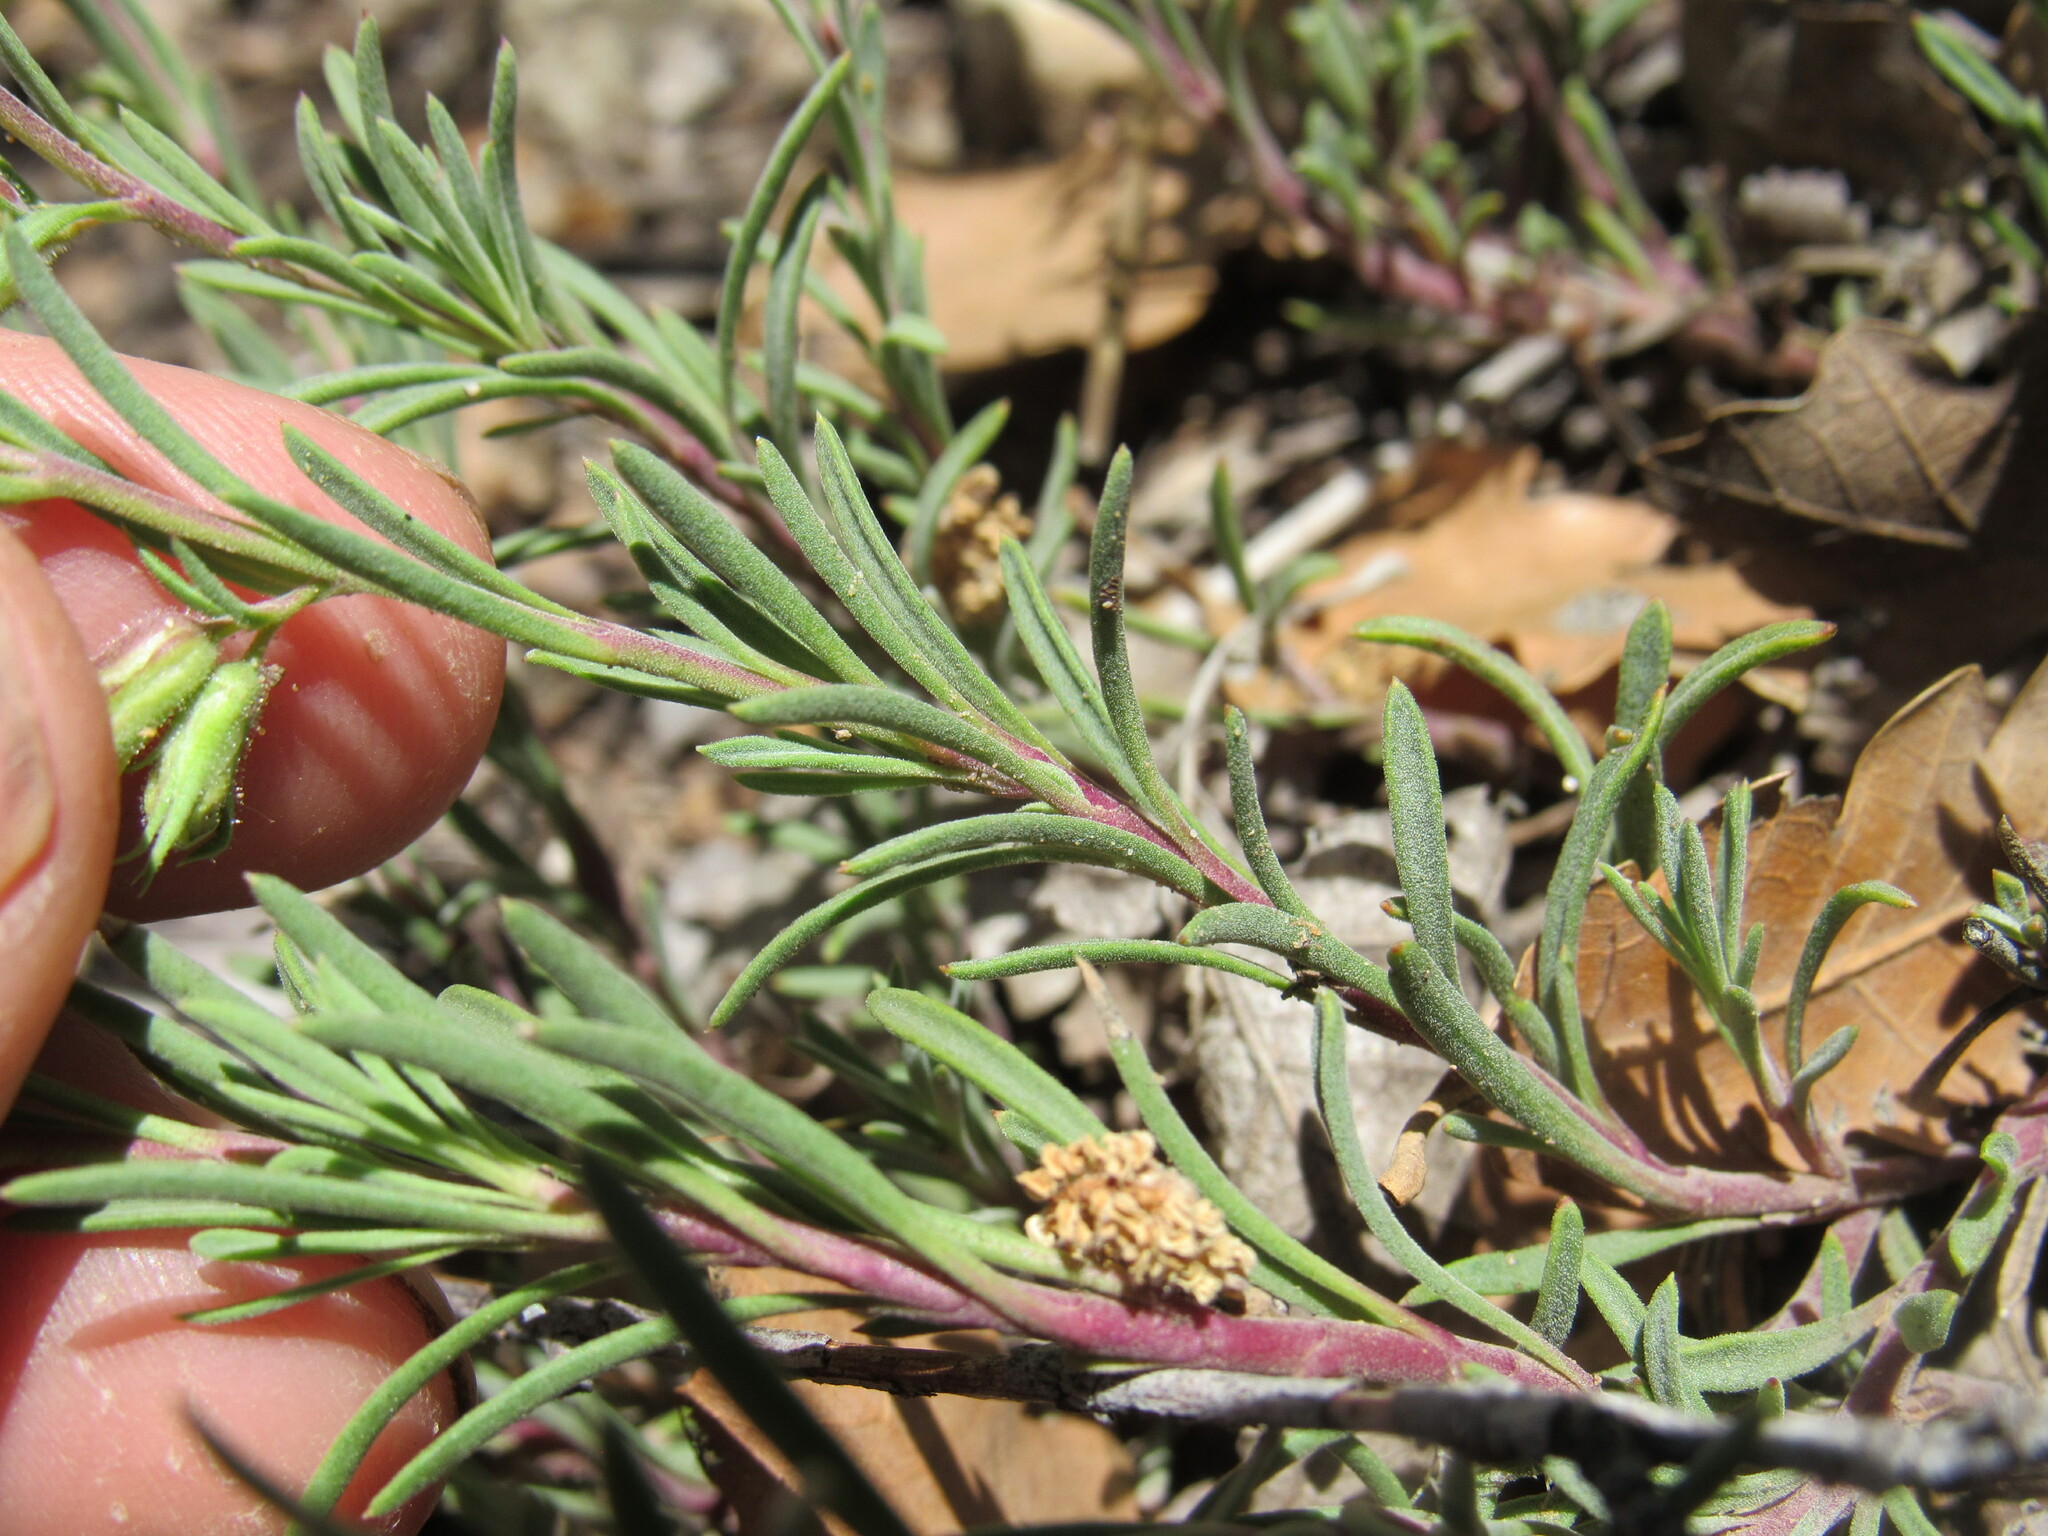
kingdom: Plantae
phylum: Tracheophyta
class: Magnoliopsida
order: Lamiales
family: Plantaginaceae
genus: Penstemon
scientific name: Penstemon crandallii
